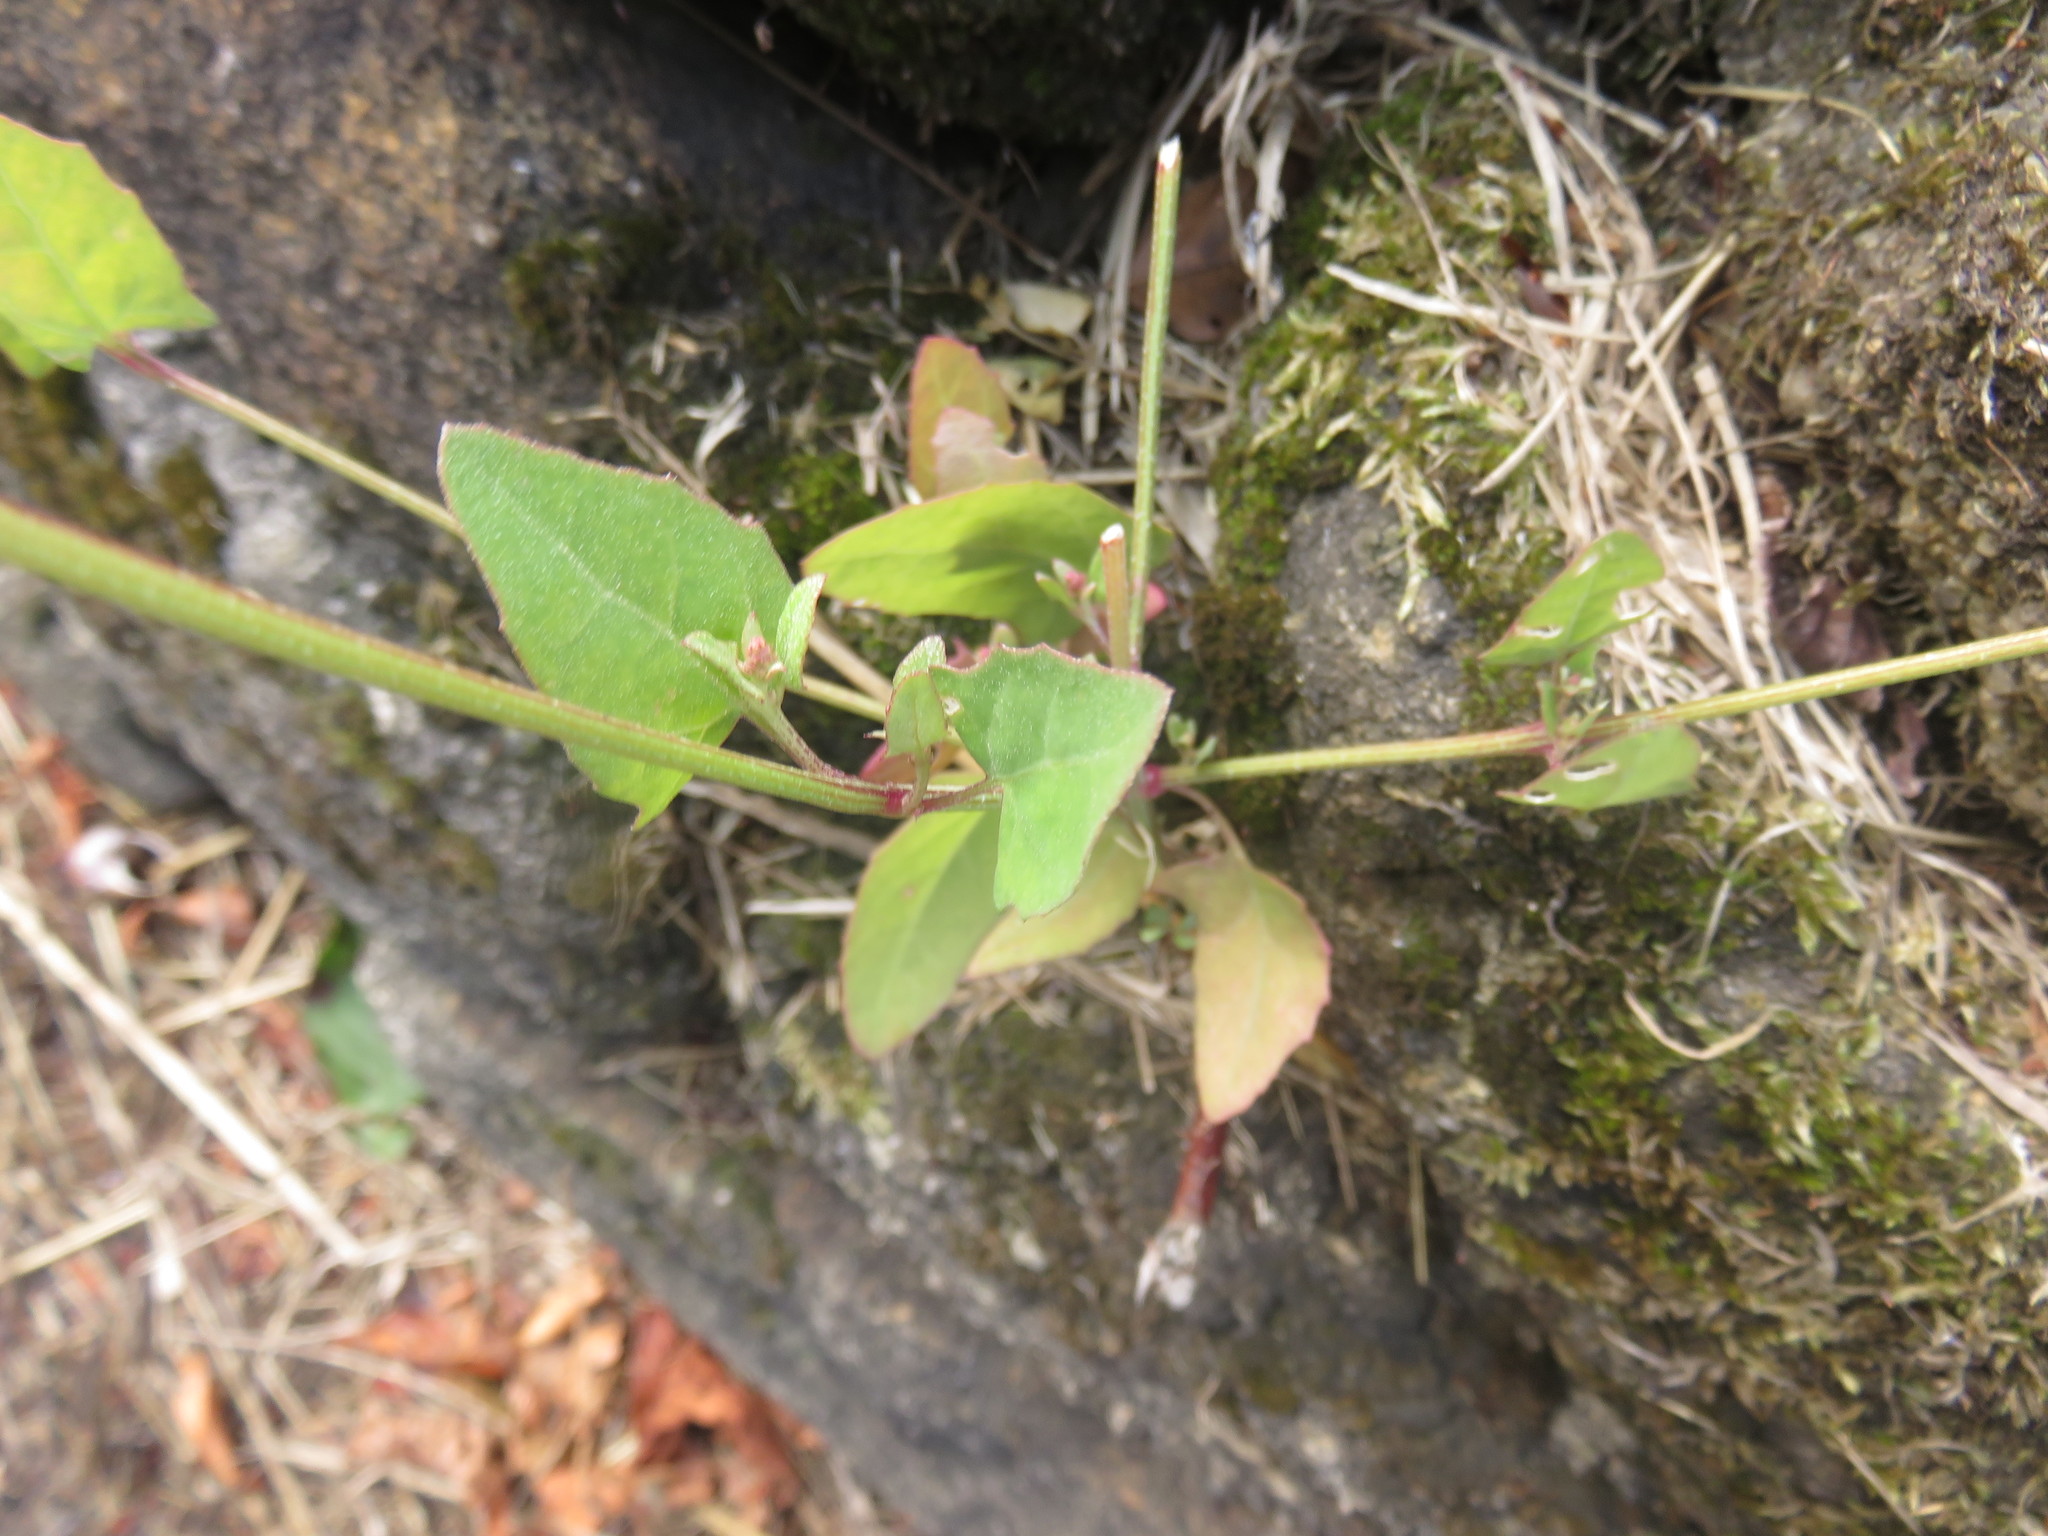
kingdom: Plantae
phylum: Tracheophyta
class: Magnoliopsida
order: Caryophyllales
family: Amaranthaceae
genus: Atriplex
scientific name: Atriplex prostrata
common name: Spear-leaved orache
